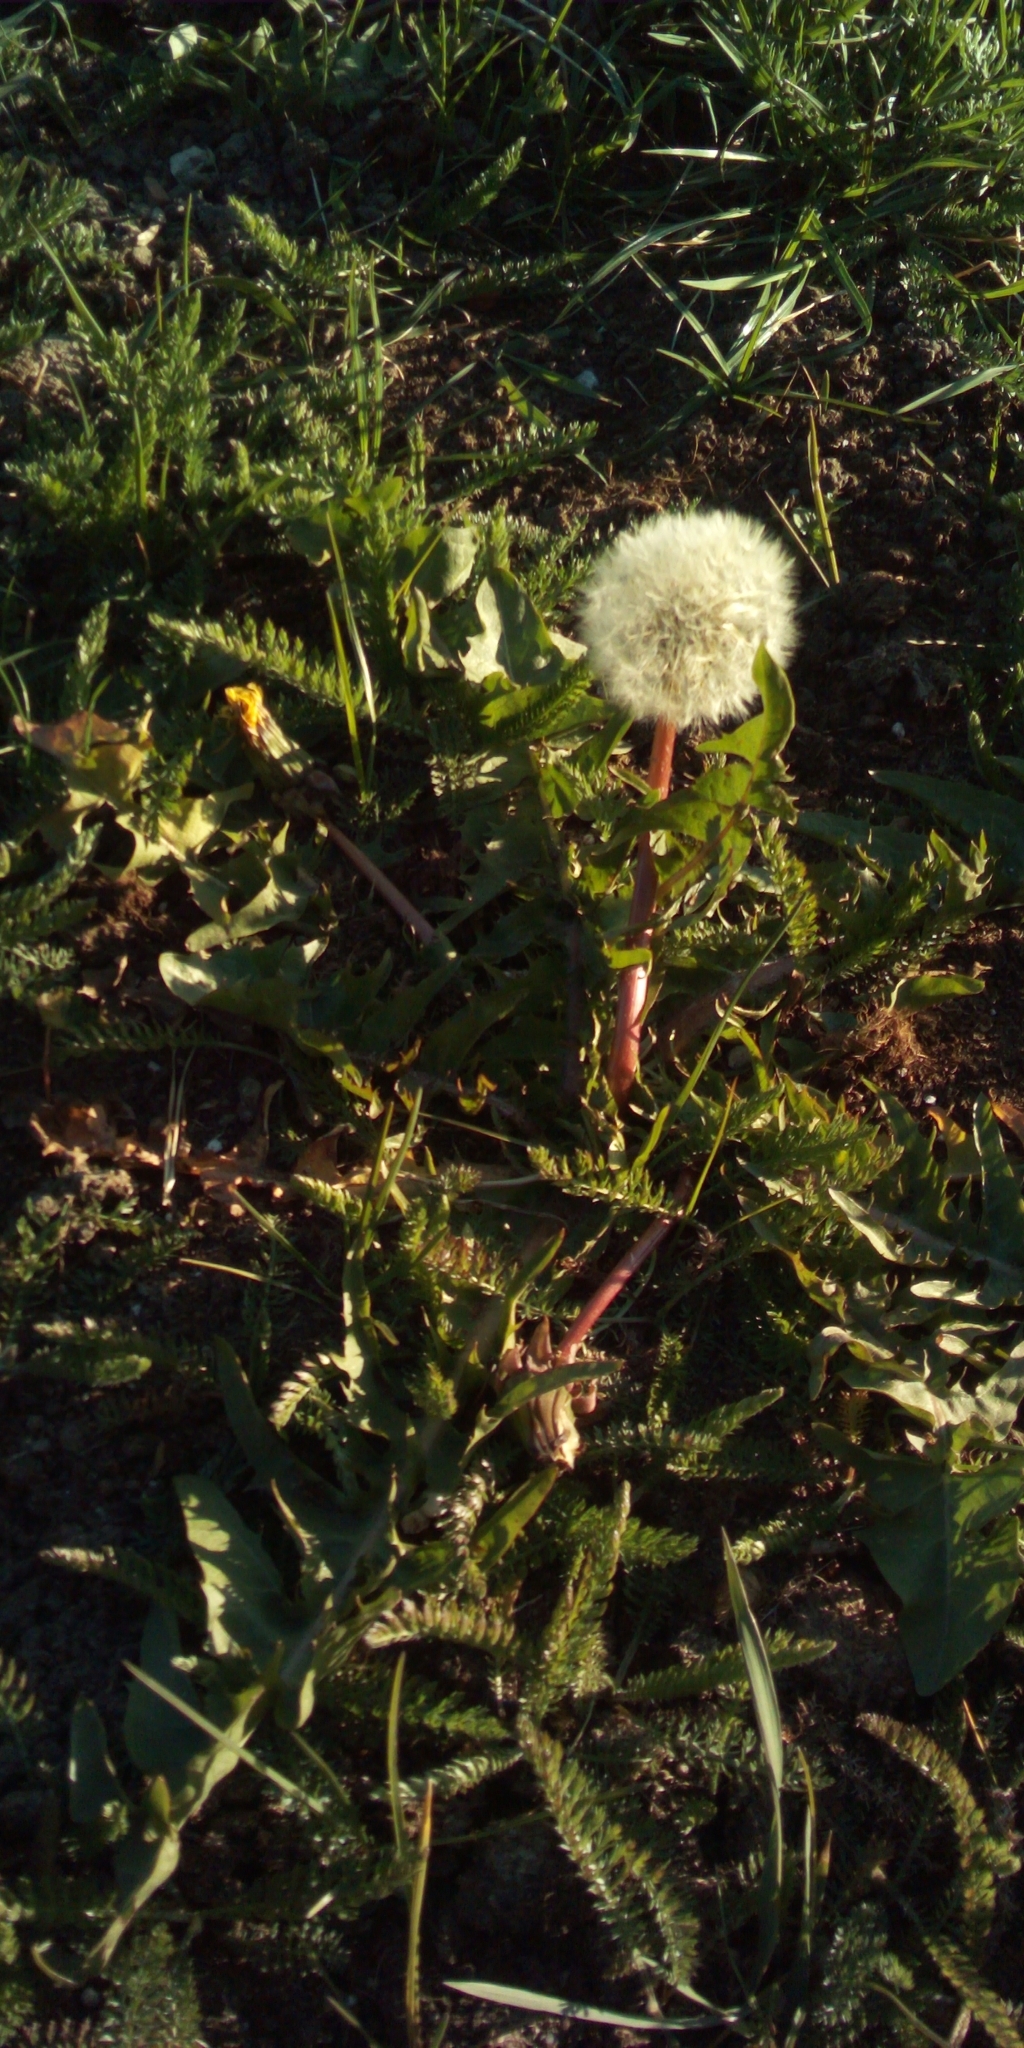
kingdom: Plantae
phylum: Tracheophyta
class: Magnoliopsida
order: Asterales
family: Asteraceae
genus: Taraxacum
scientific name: Taraxacum officinale
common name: Common dandelion
